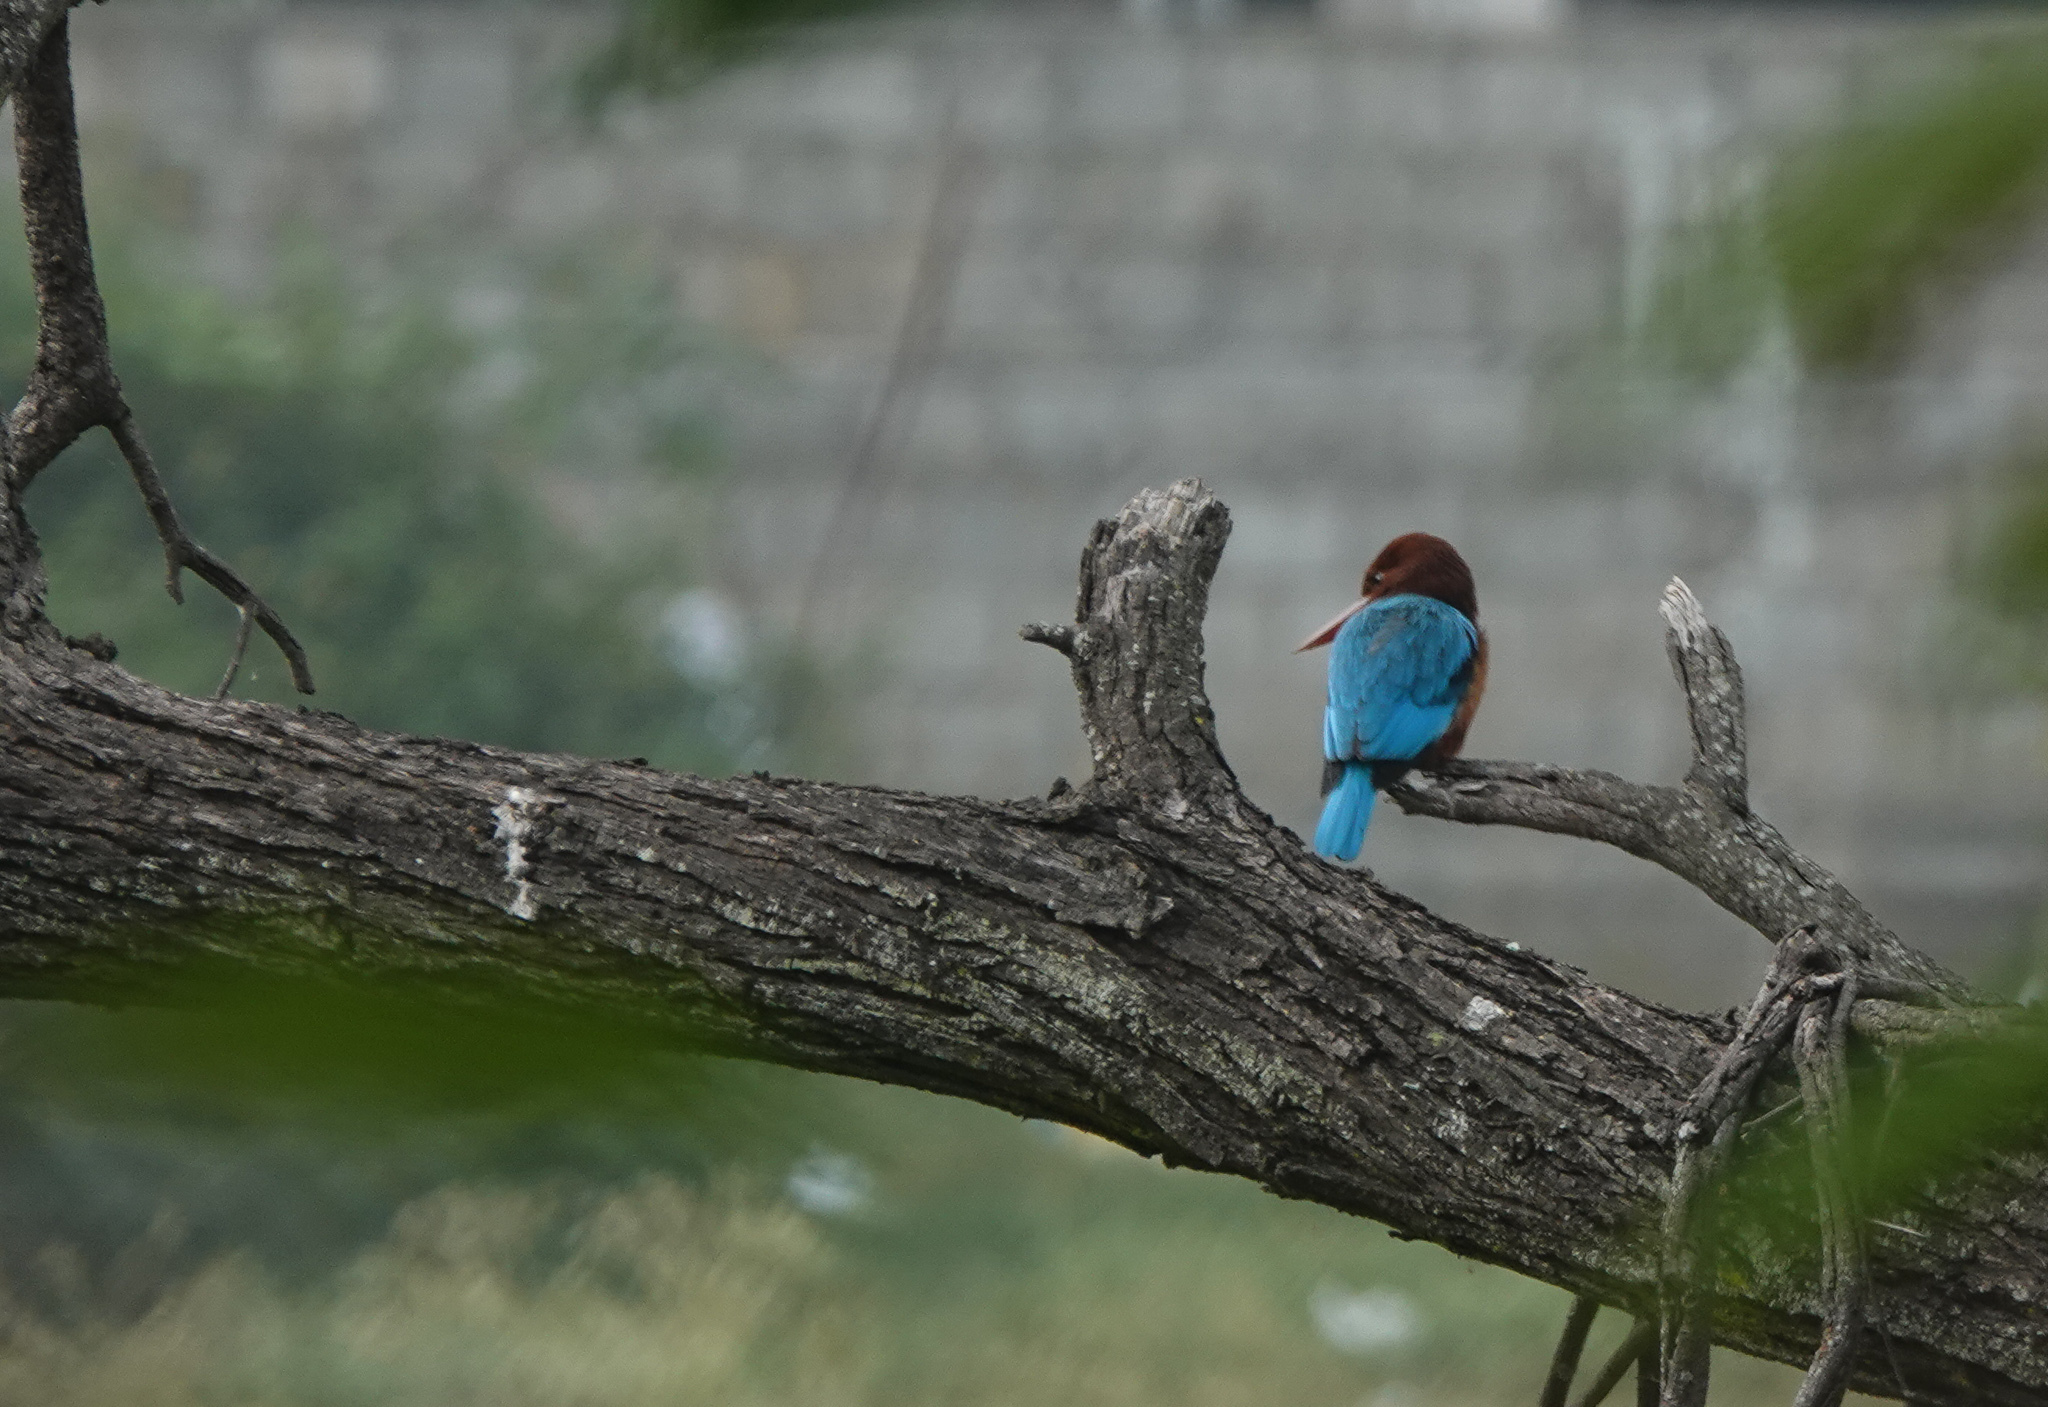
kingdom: Animalia
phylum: Chordata
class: Aves
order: Coraciiformes
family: Alcedinidae
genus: Halcyon
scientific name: Halcyon smyrnensis
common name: White-throated kingfisher
